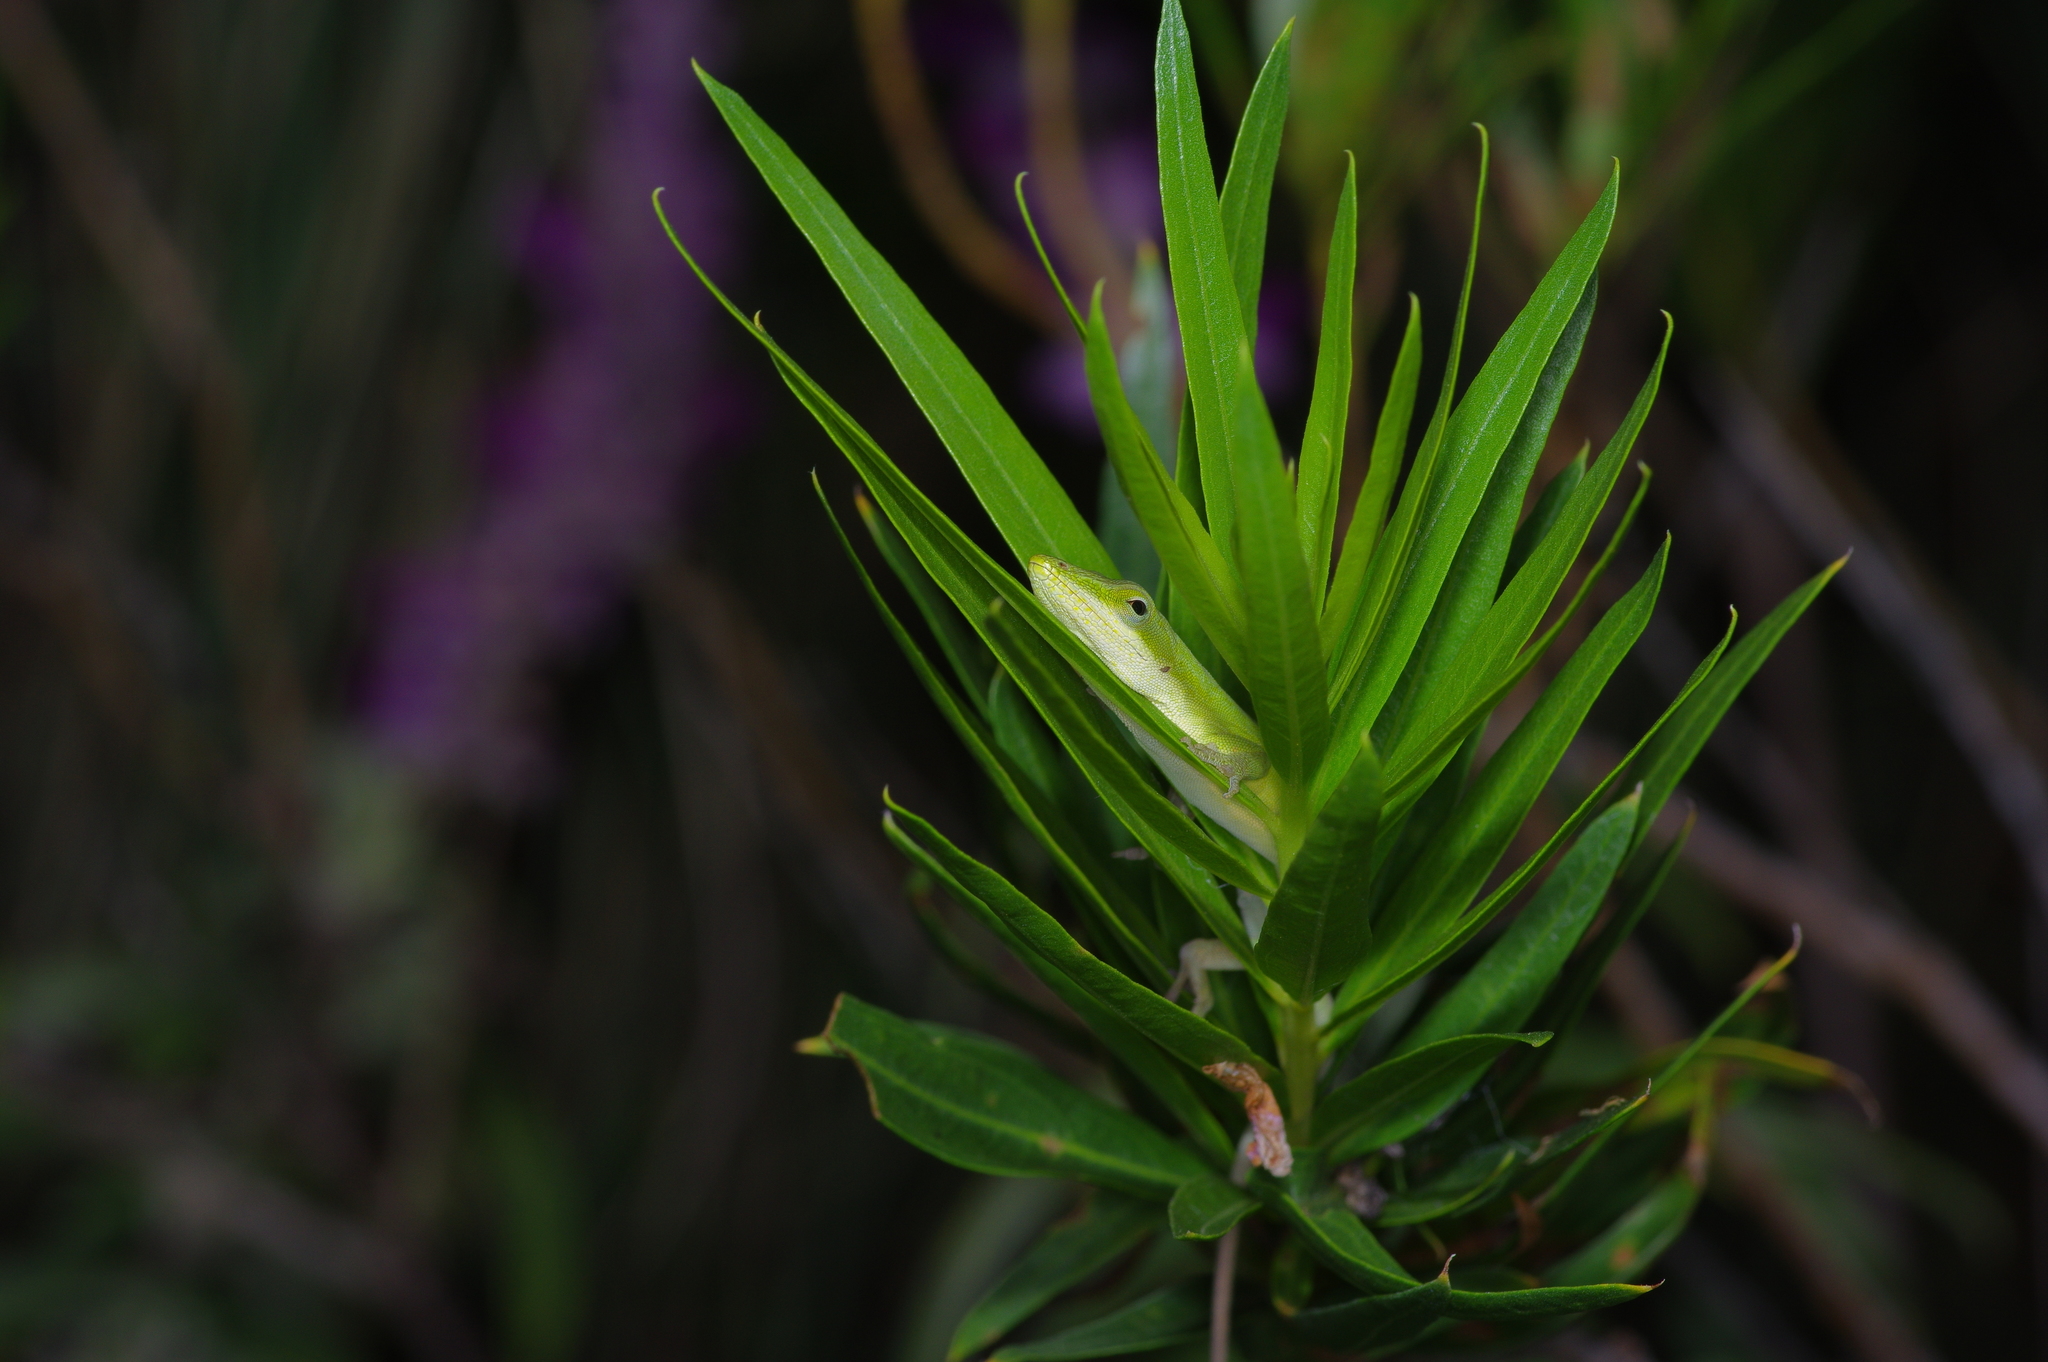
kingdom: Animalia
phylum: Chordata
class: Squamata
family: Dactyloidae
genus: Anolis
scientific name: Anolis carolinensis
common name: Green anole
